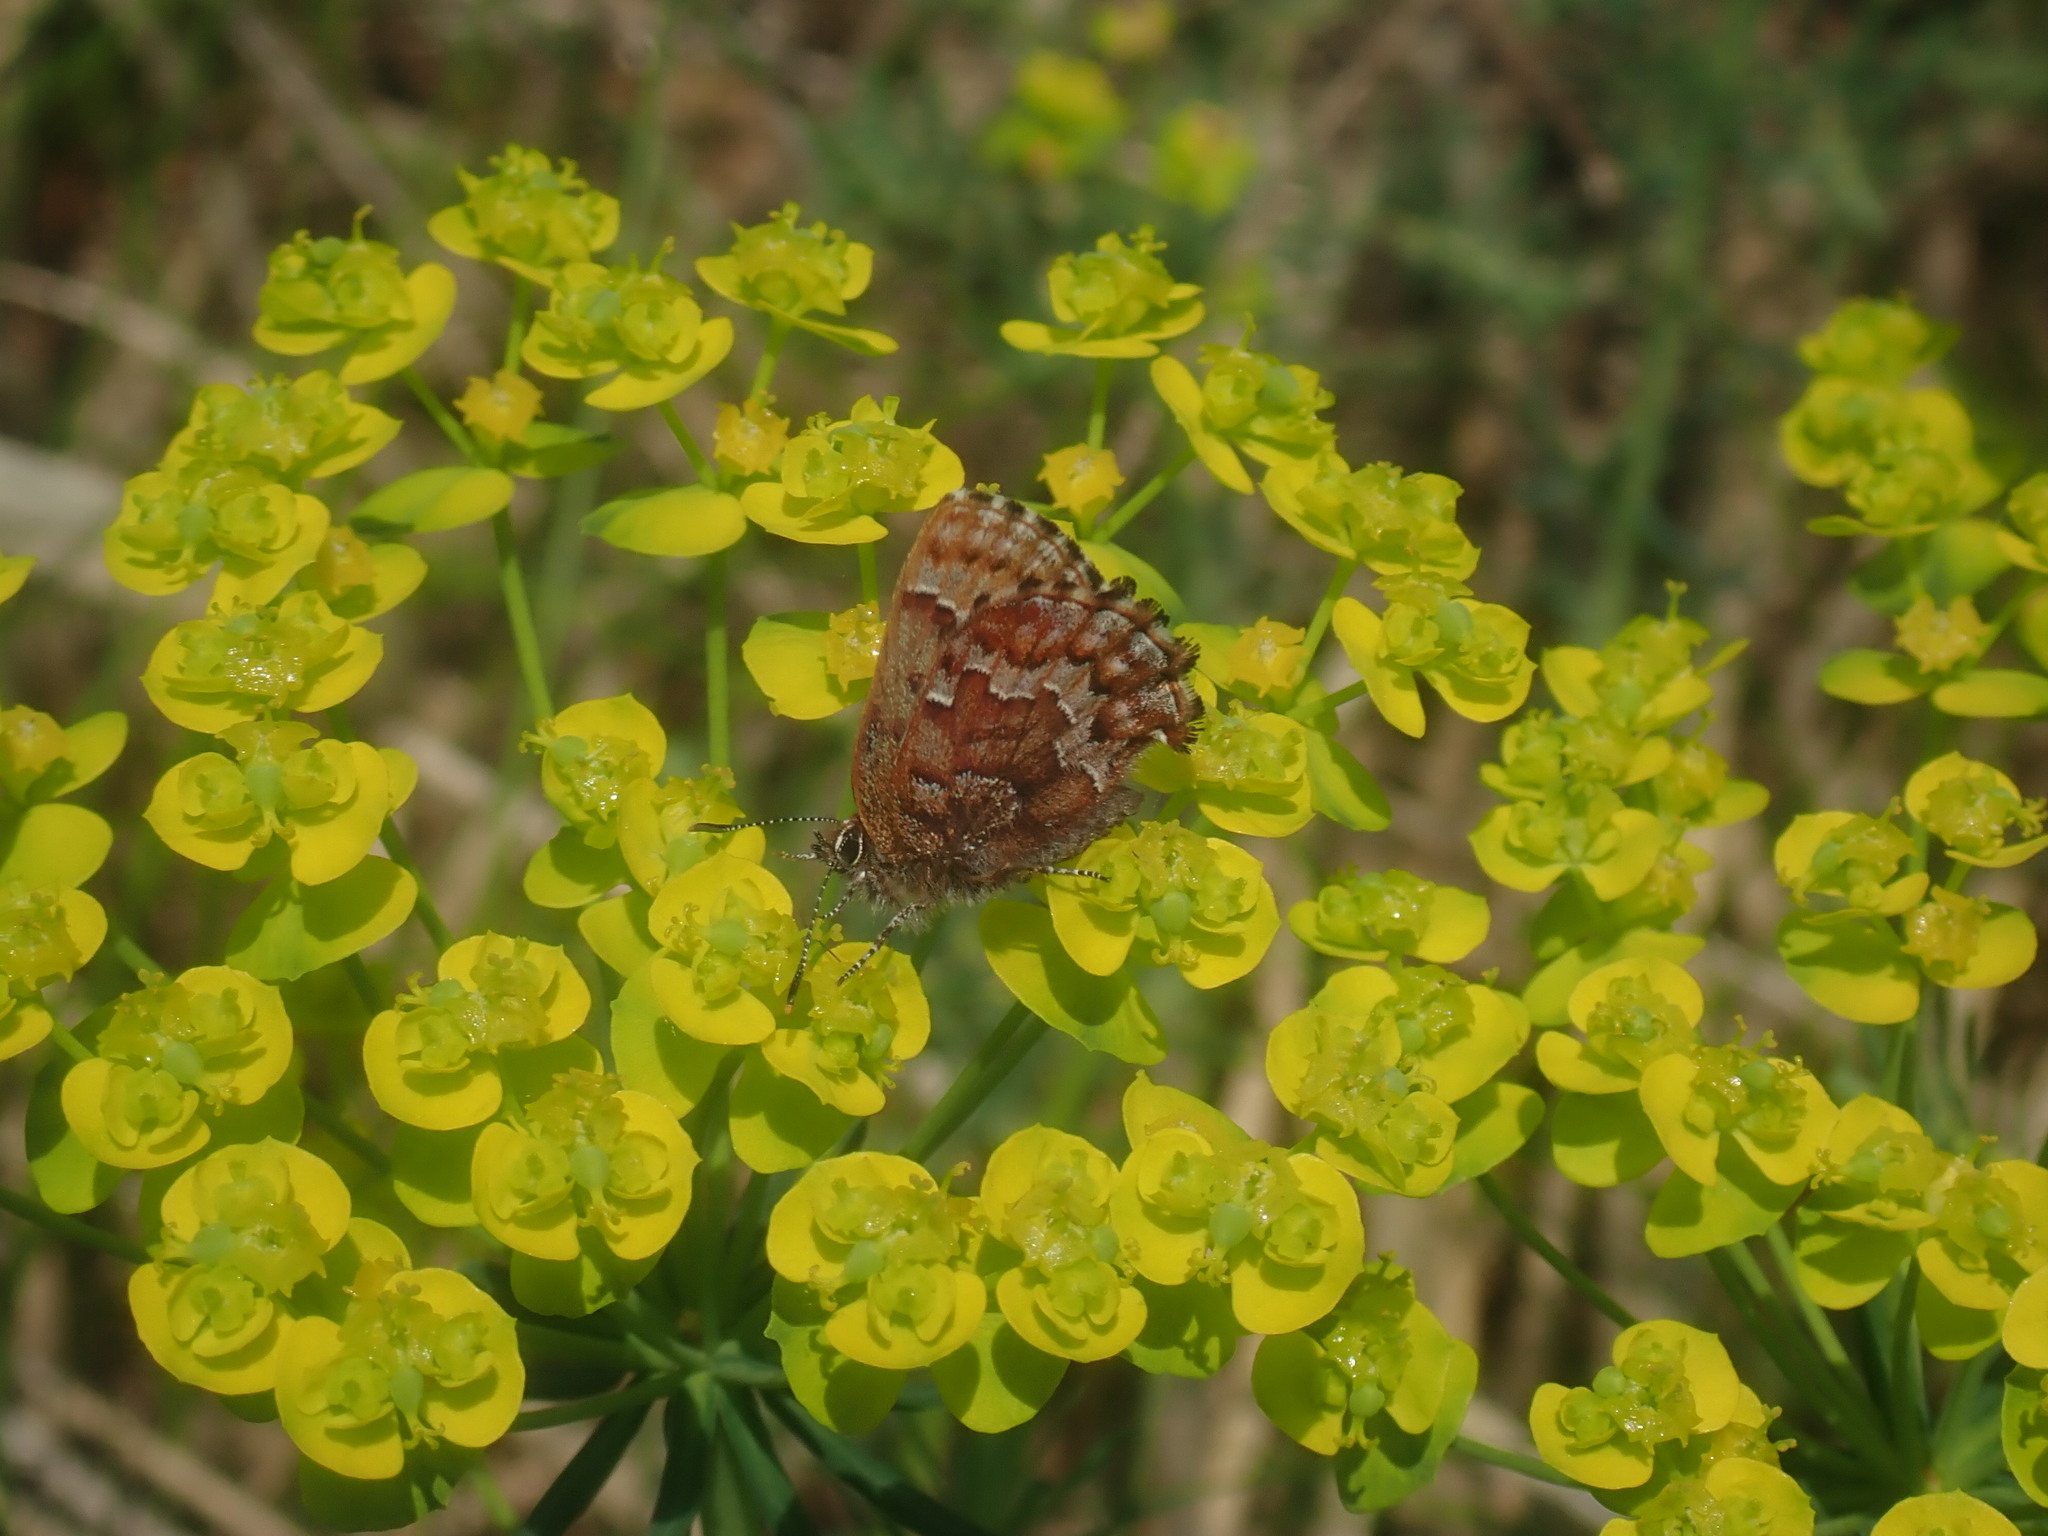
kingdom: Animalia
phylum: Arthropoda
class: Insecta
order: Lepidoptera
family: Lycaenidae
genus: Incisalia
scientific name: Incisalia niphon
